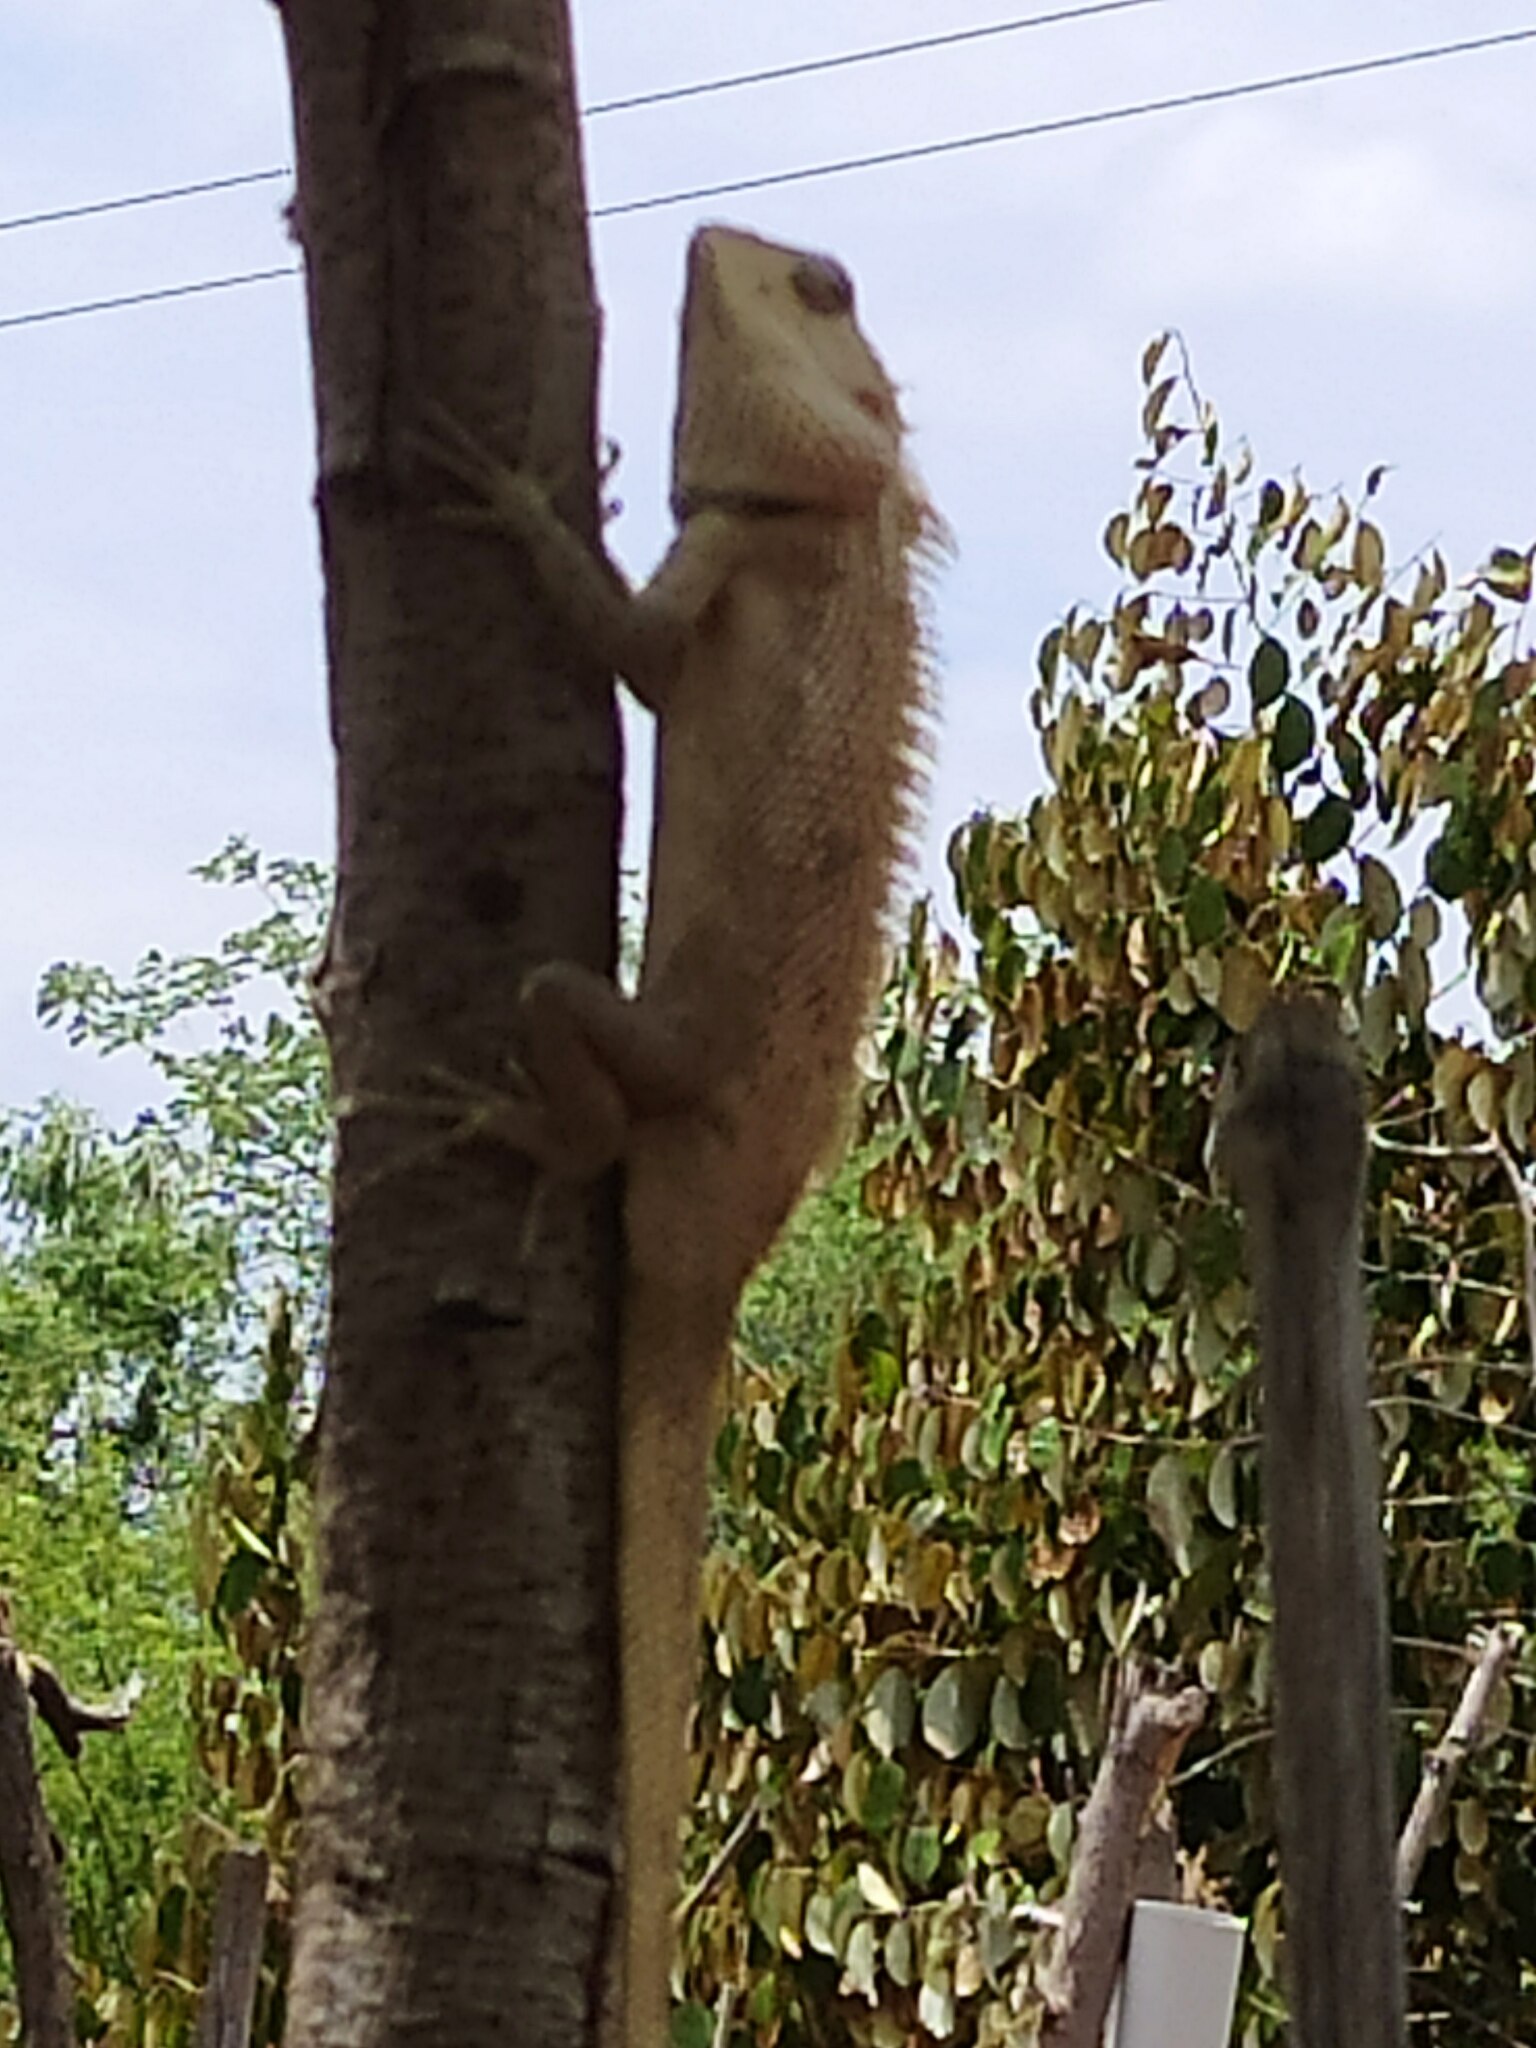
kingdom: Animalia
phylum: Chordata
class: Squamata
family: Agamidae
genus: Calotes
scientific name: Calotes versicolor
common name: Oriental garden lizard
